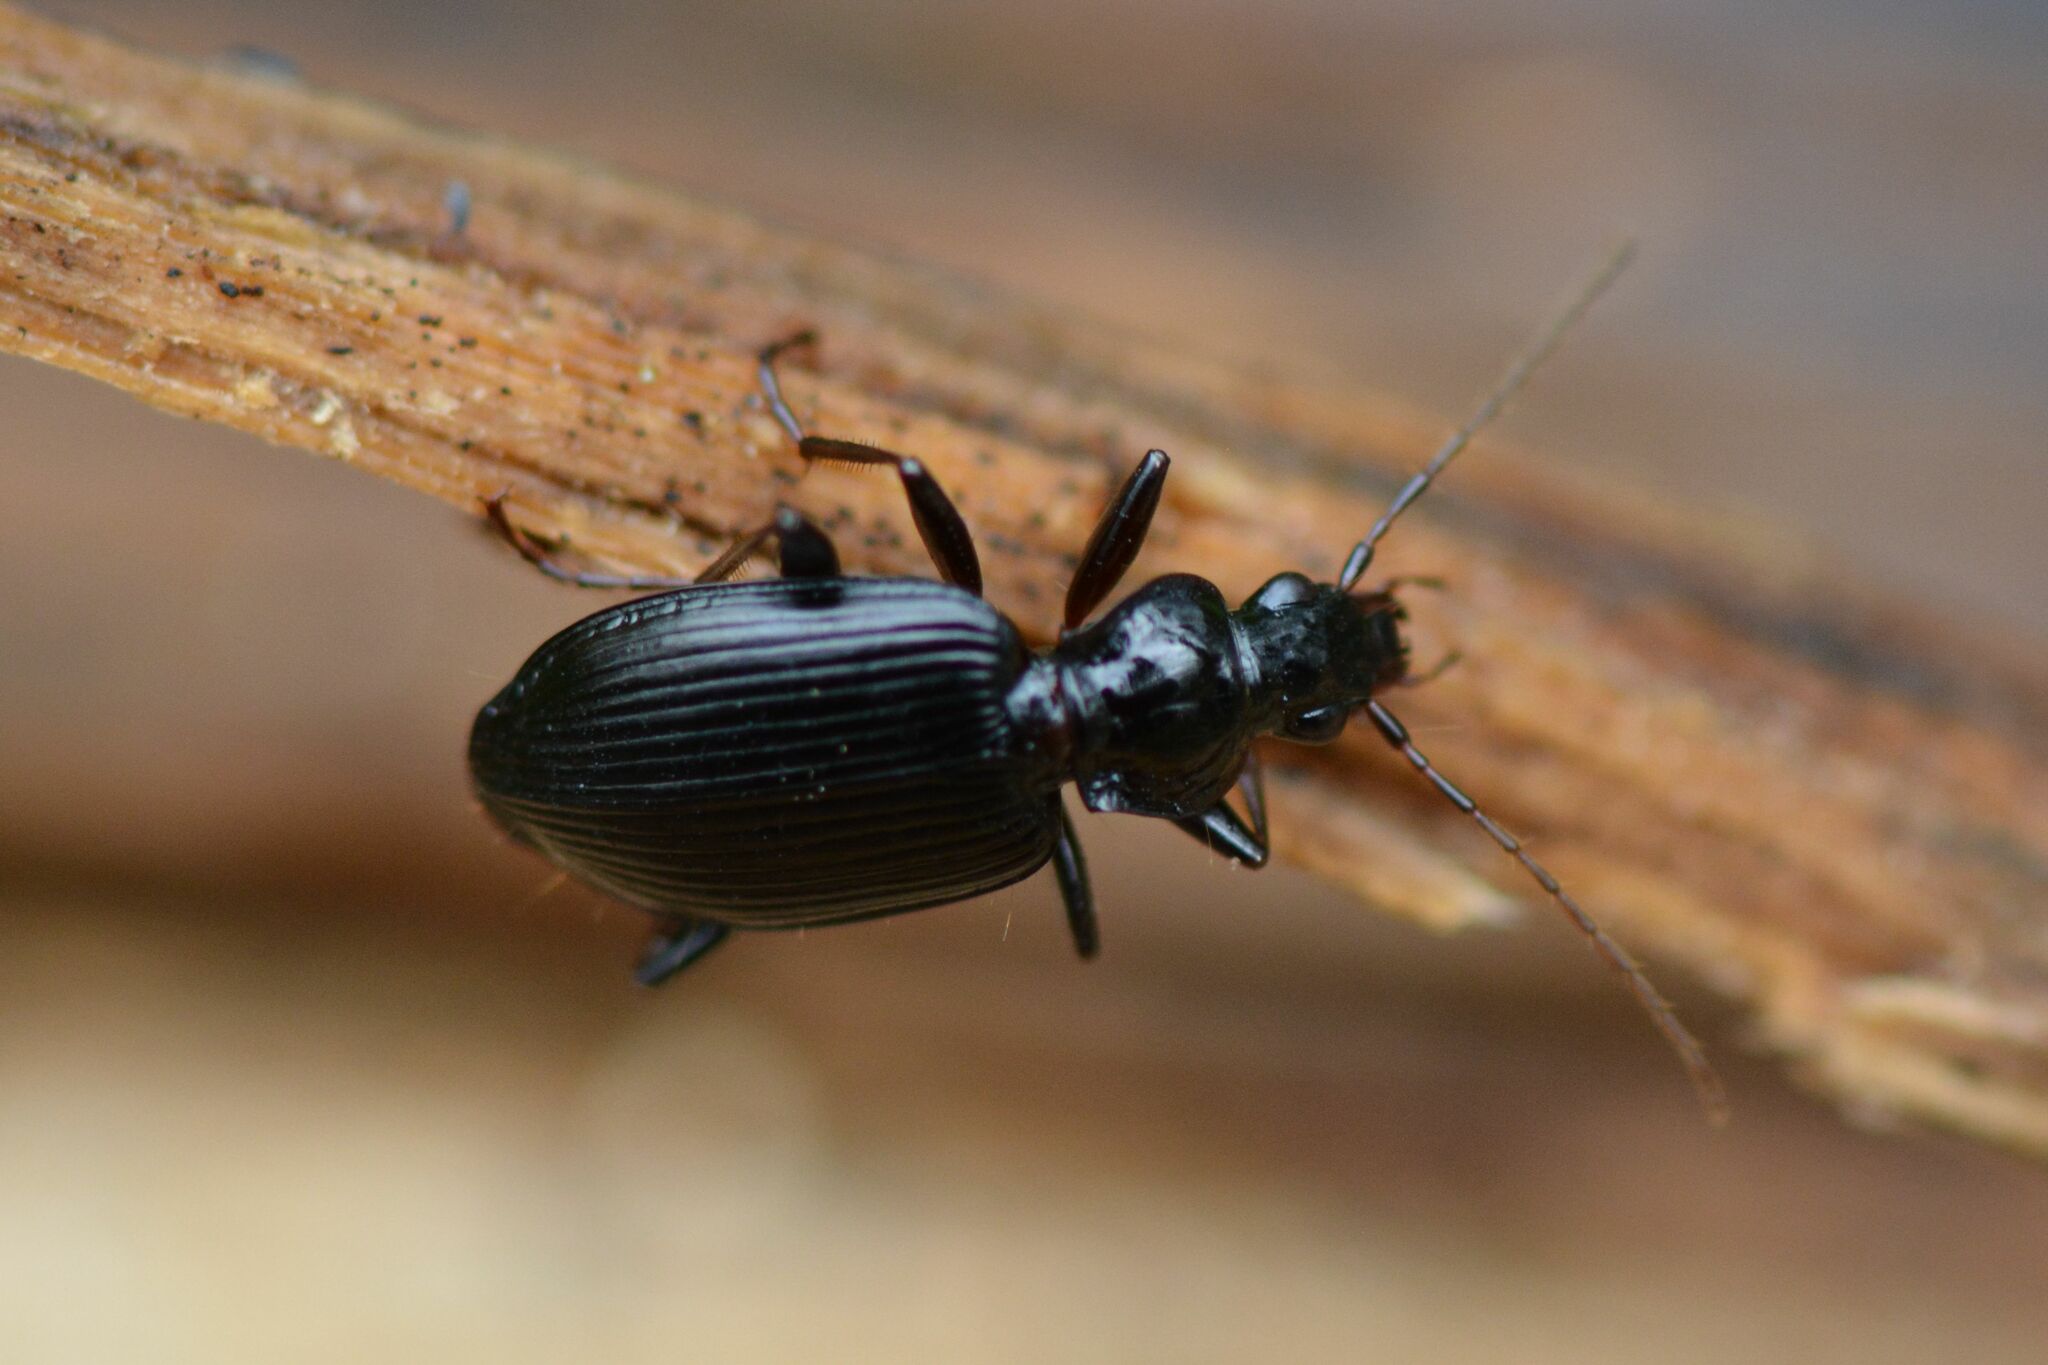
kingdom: Animalia
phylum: Arthropoda
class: Insecta
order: Coleoptera
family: Carabidae
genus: Platynus
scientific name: Platynus assimilis
